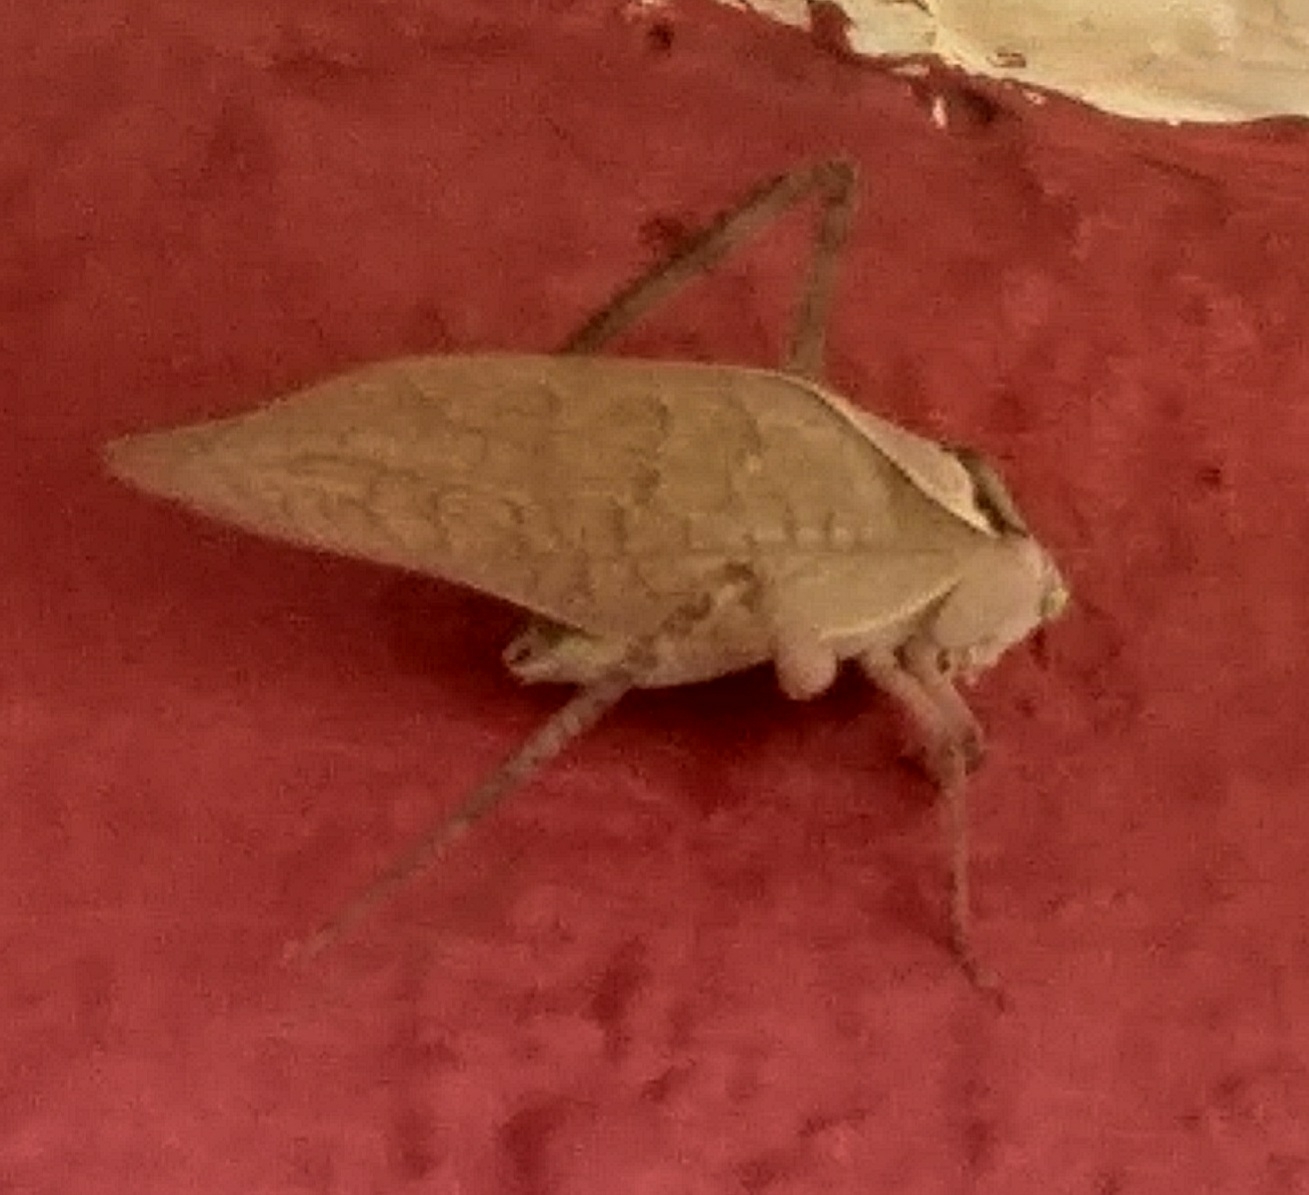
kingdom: Animalia
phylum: Arthropoda
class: Insecta
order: Orthoptera
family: Tettigoniidae
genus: Stilpnochlora
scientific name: Stilpnochlora azteca
